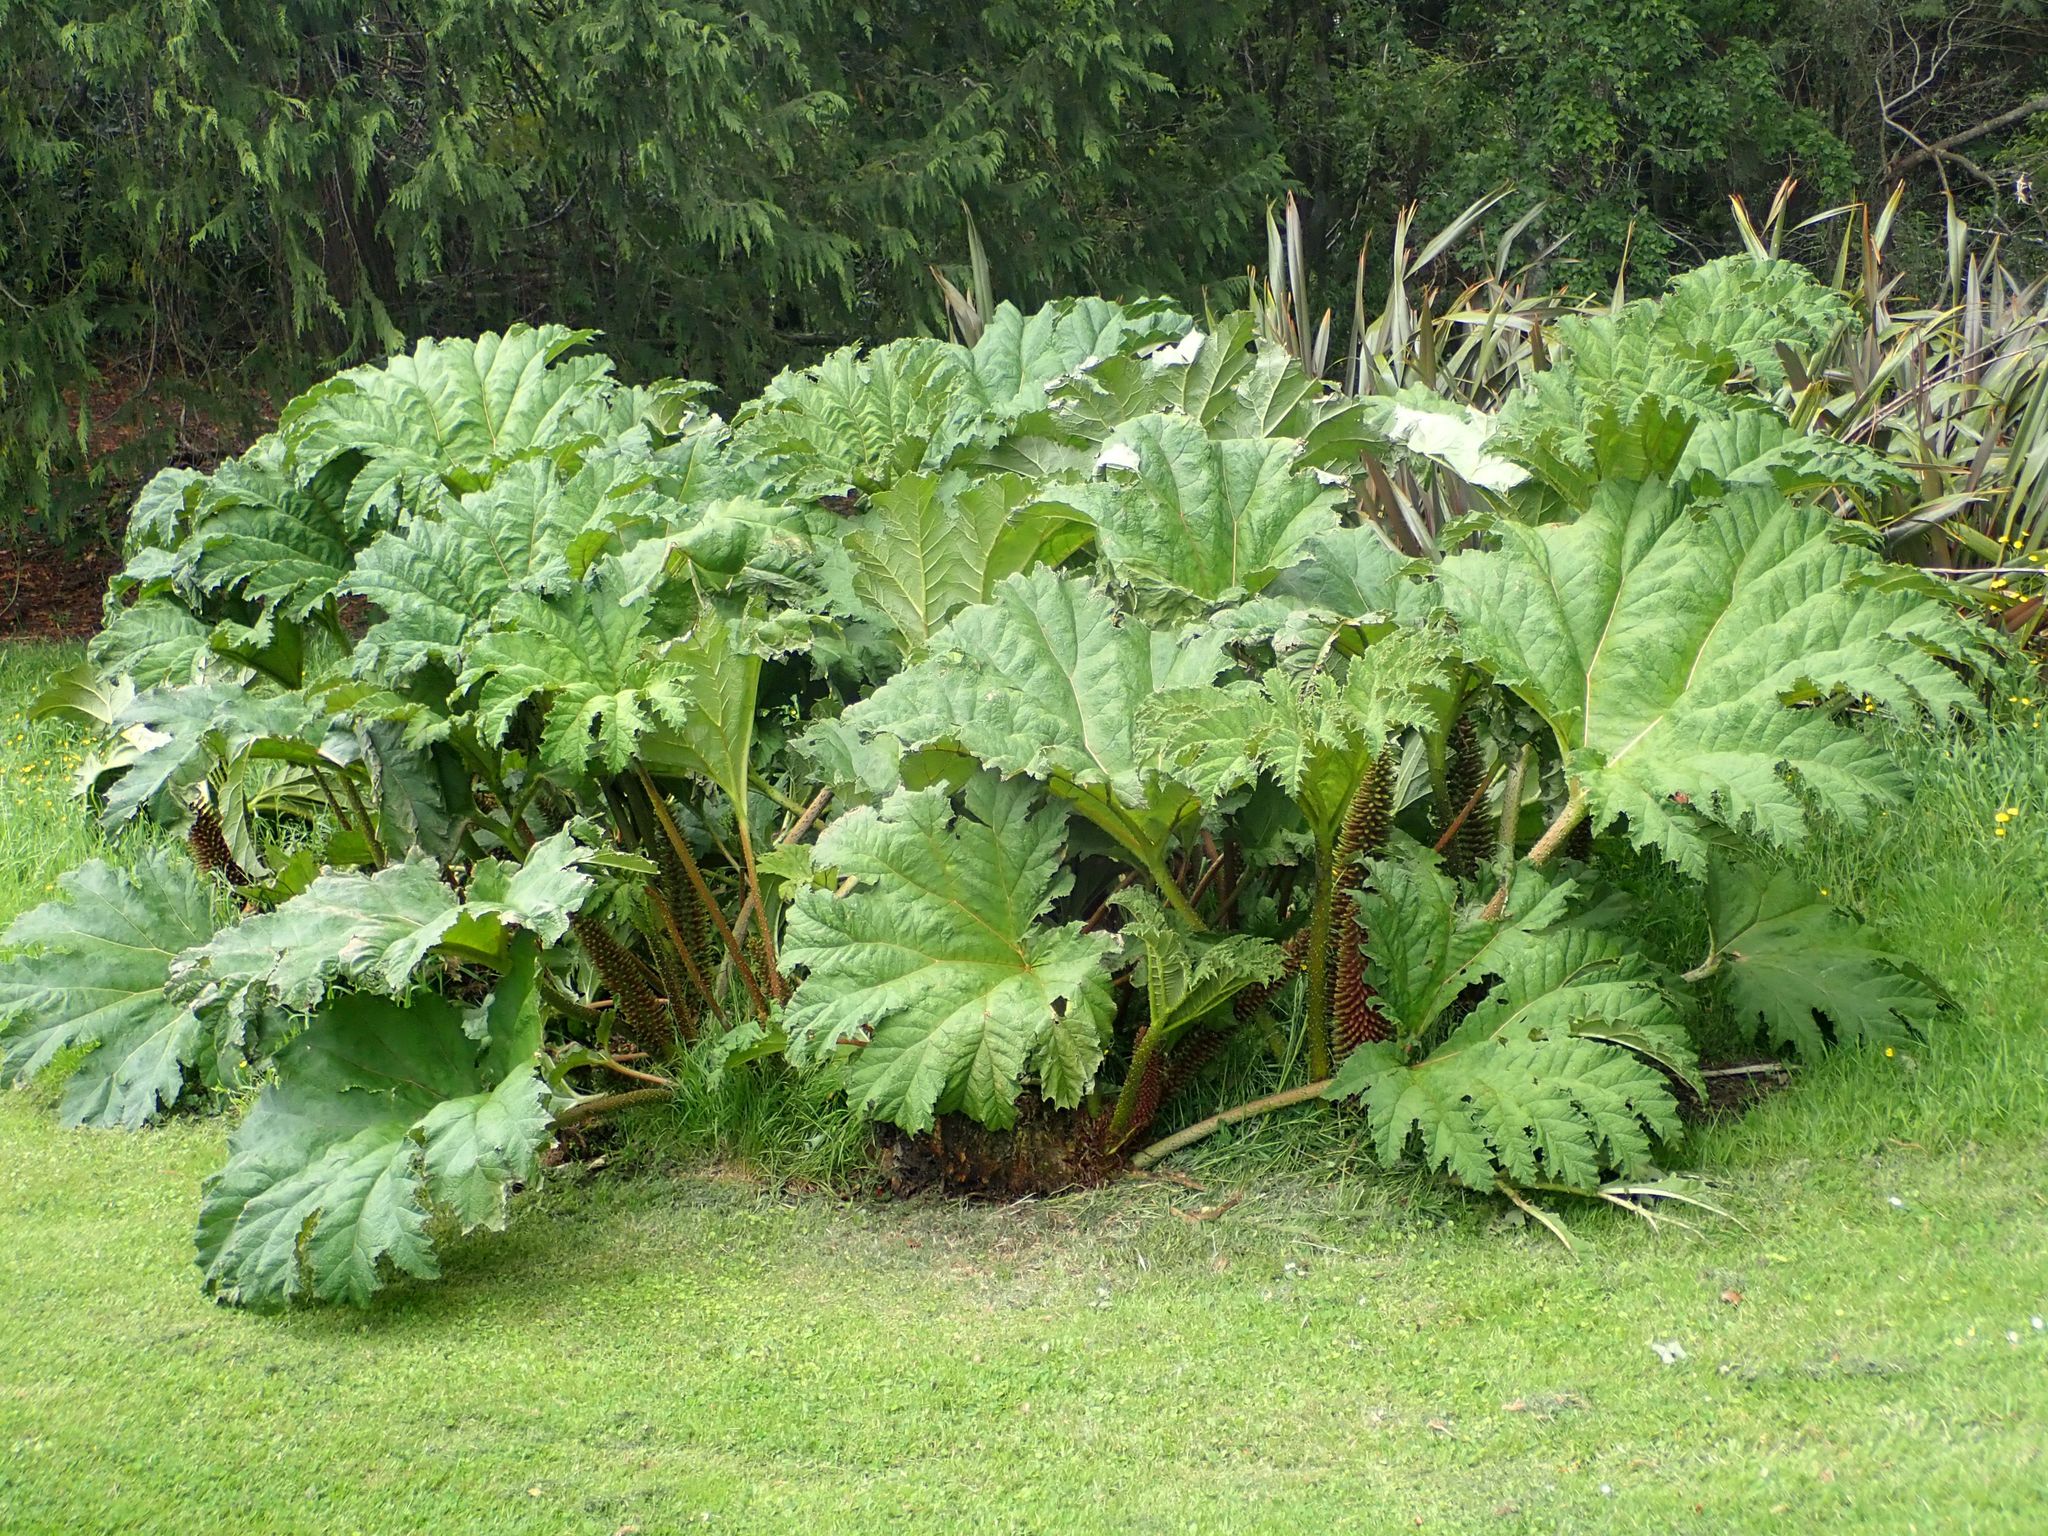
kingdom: Plantae
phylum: Tracheophyta
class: Magnoliopsida
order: Gunnerales
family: Gunneraceae
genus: Gunnera
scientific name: Gunnera tinctoria
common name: Giant-rhubarb
